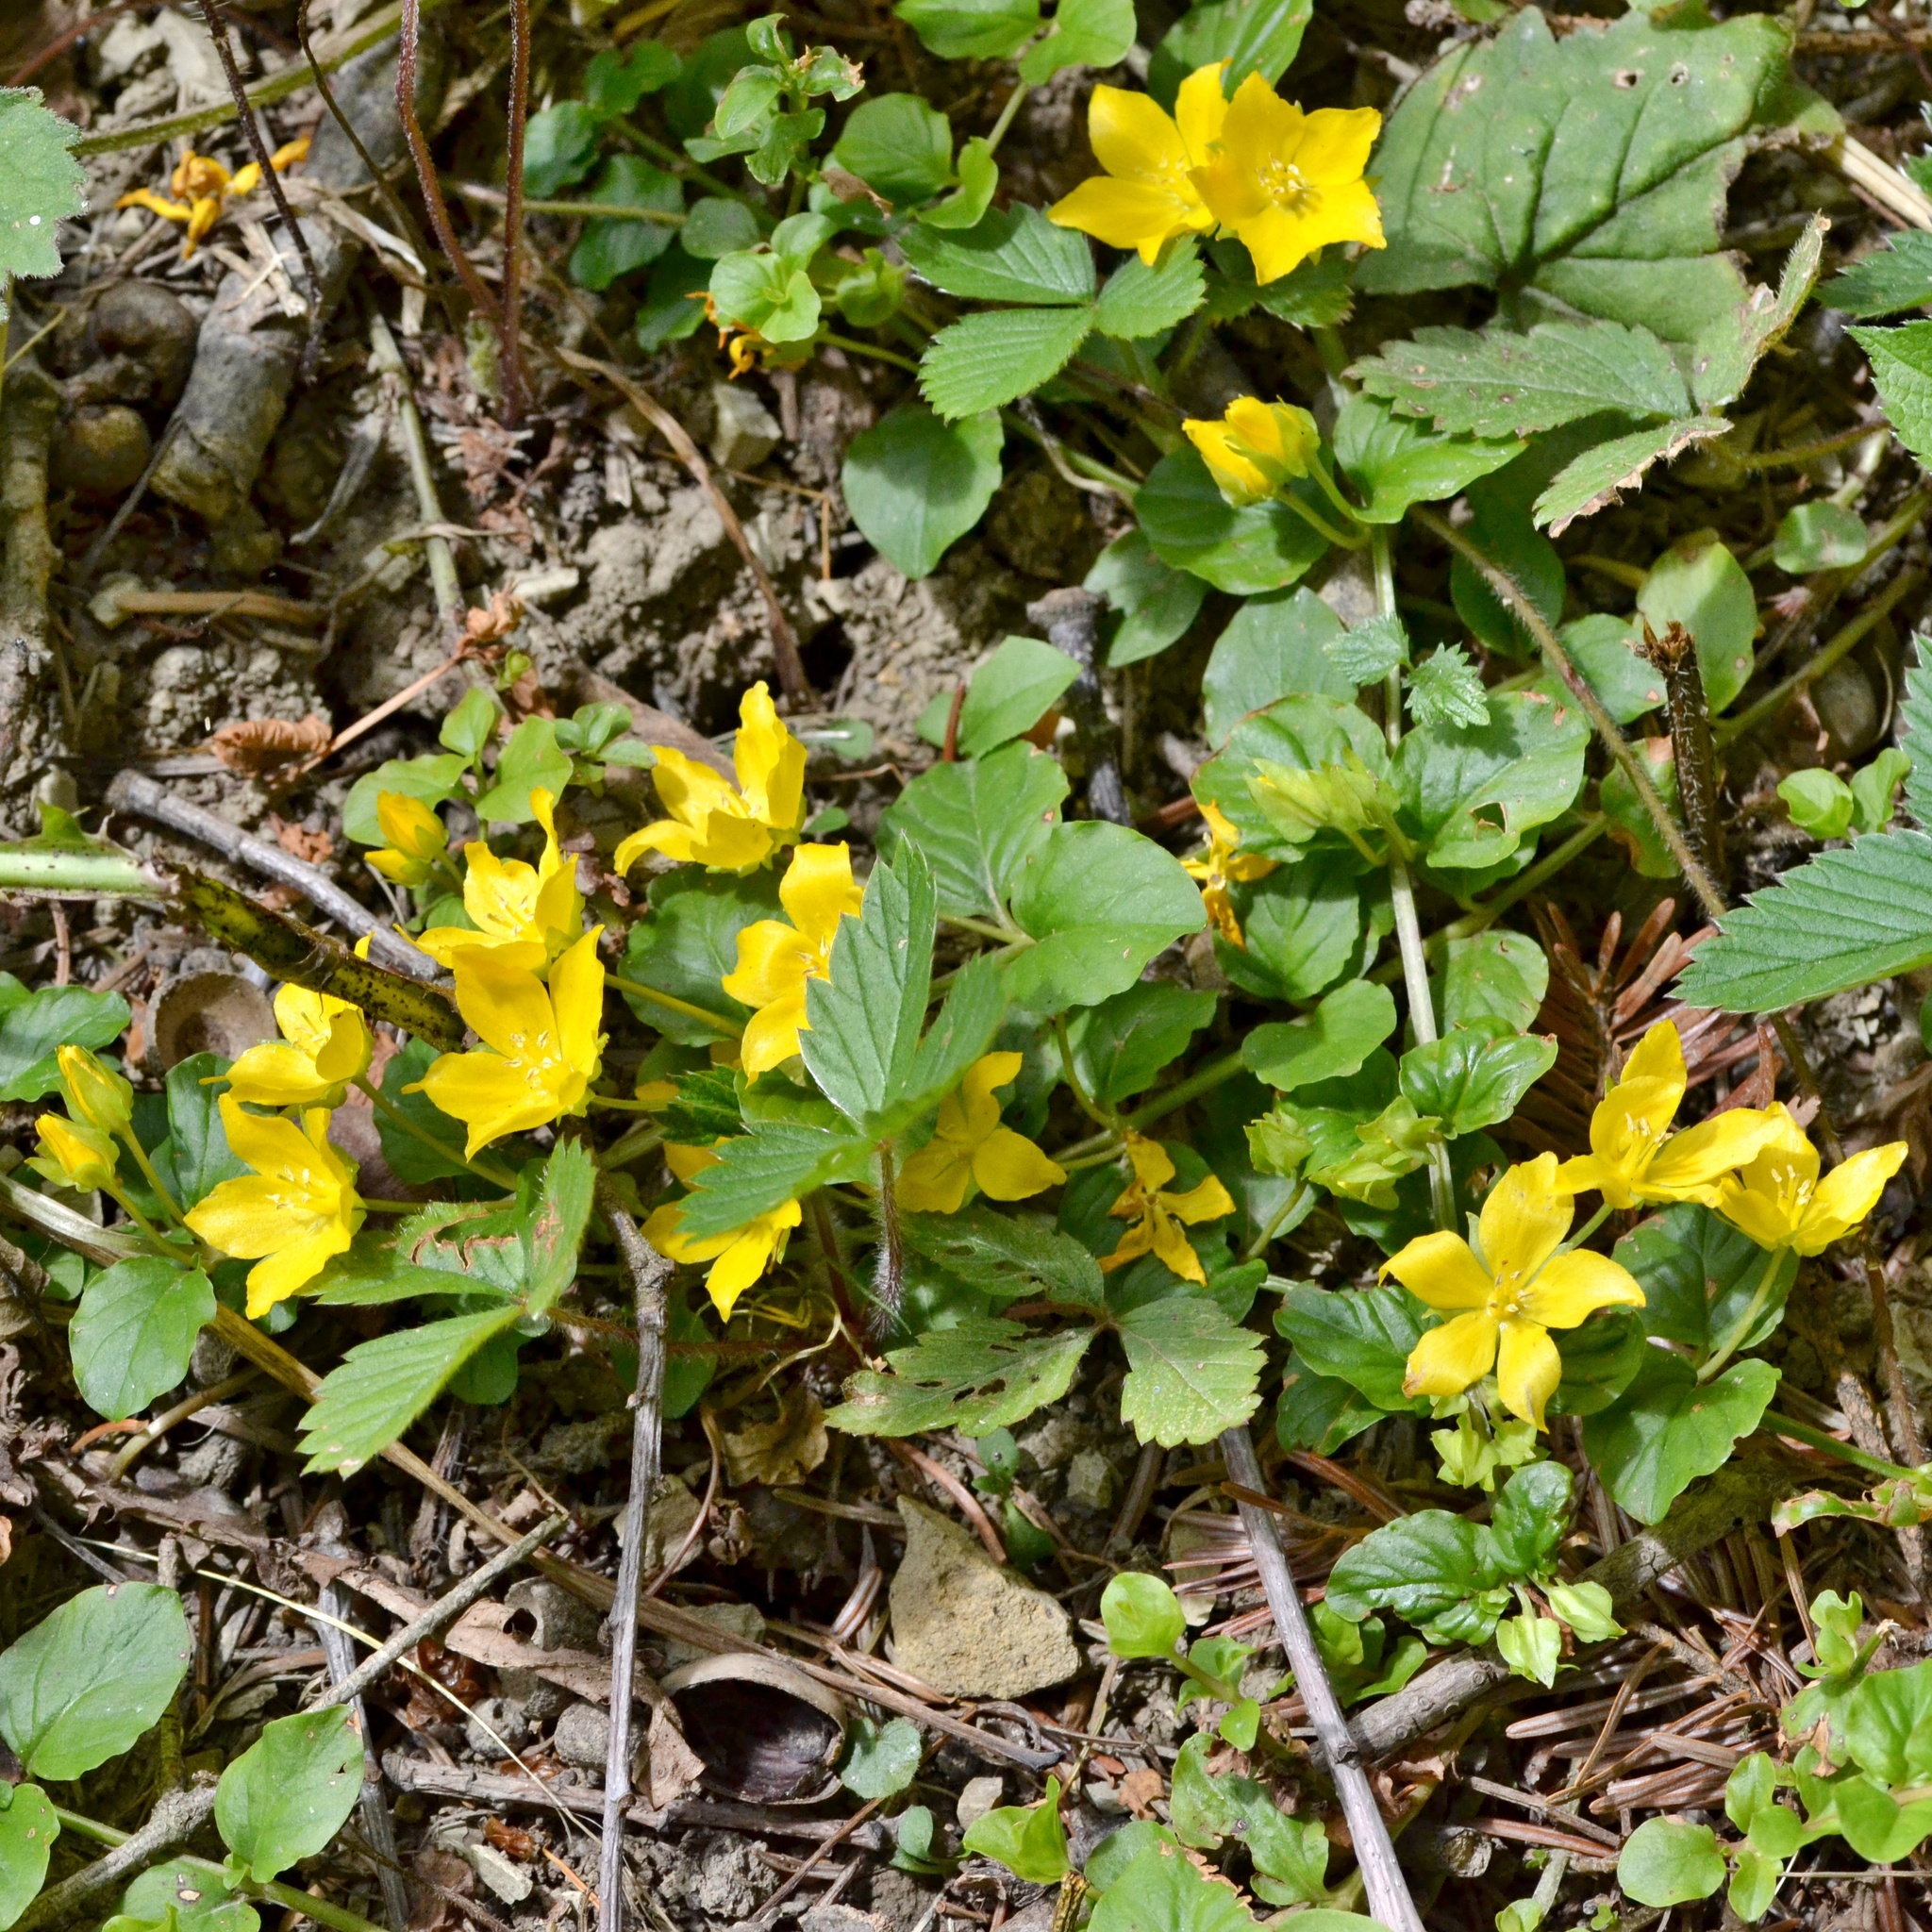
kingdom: Plantae
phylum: Tracheophyta
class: Magnoliopsida
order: Ericales
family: Primulaceae
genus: Lysimachia
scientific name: Lysimachia nummularia
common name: Moneywort
